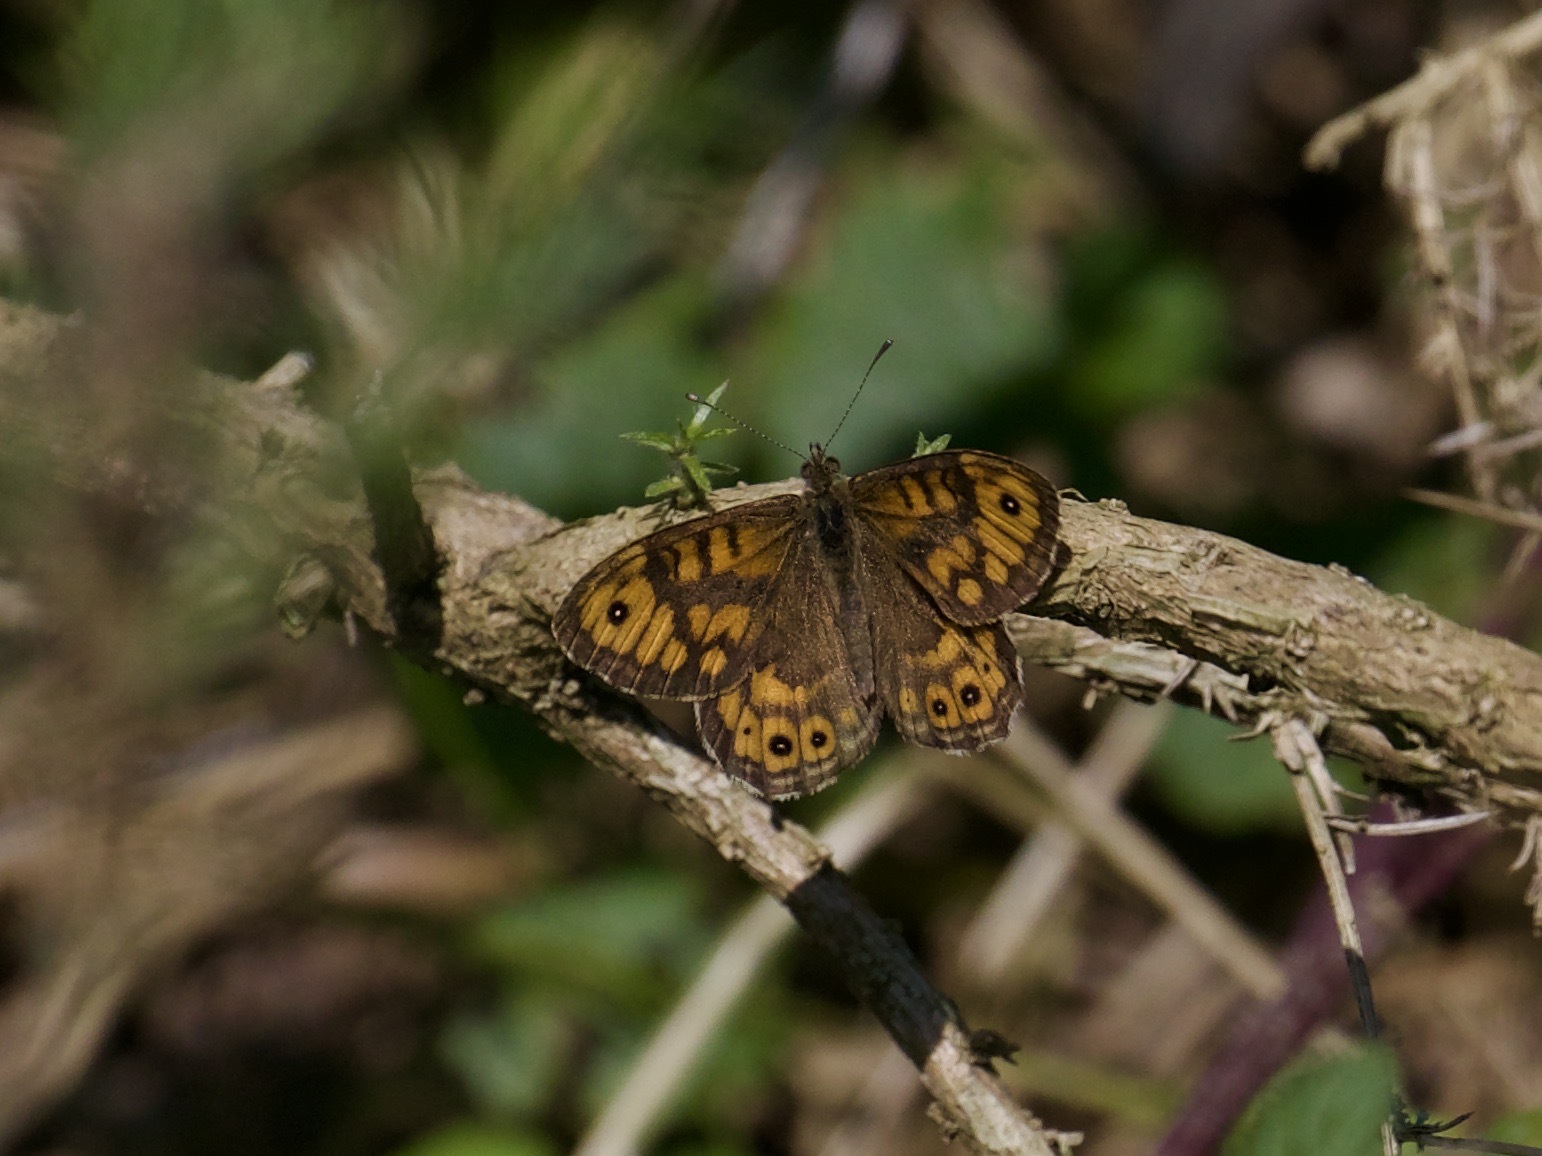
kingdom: Animalia
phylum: Arthropoda
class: Insecta
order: Lepidoptera
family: Nymphalidae
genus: Pararge
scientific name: Pararge Lasiommata megera
